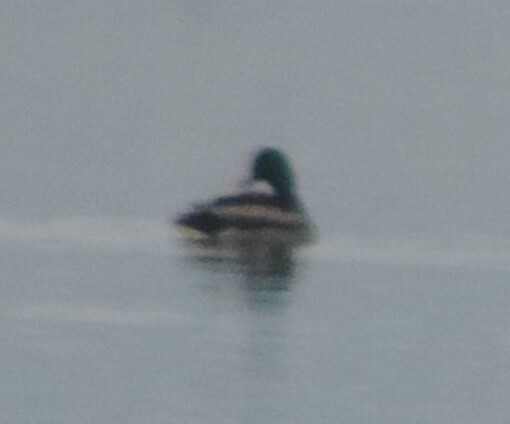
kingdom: Animalia
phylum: Chordata
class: Aves
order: Anseriformes
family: Anatidae
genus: Anas
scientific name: Anas platyrhynchos
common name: Mallard
